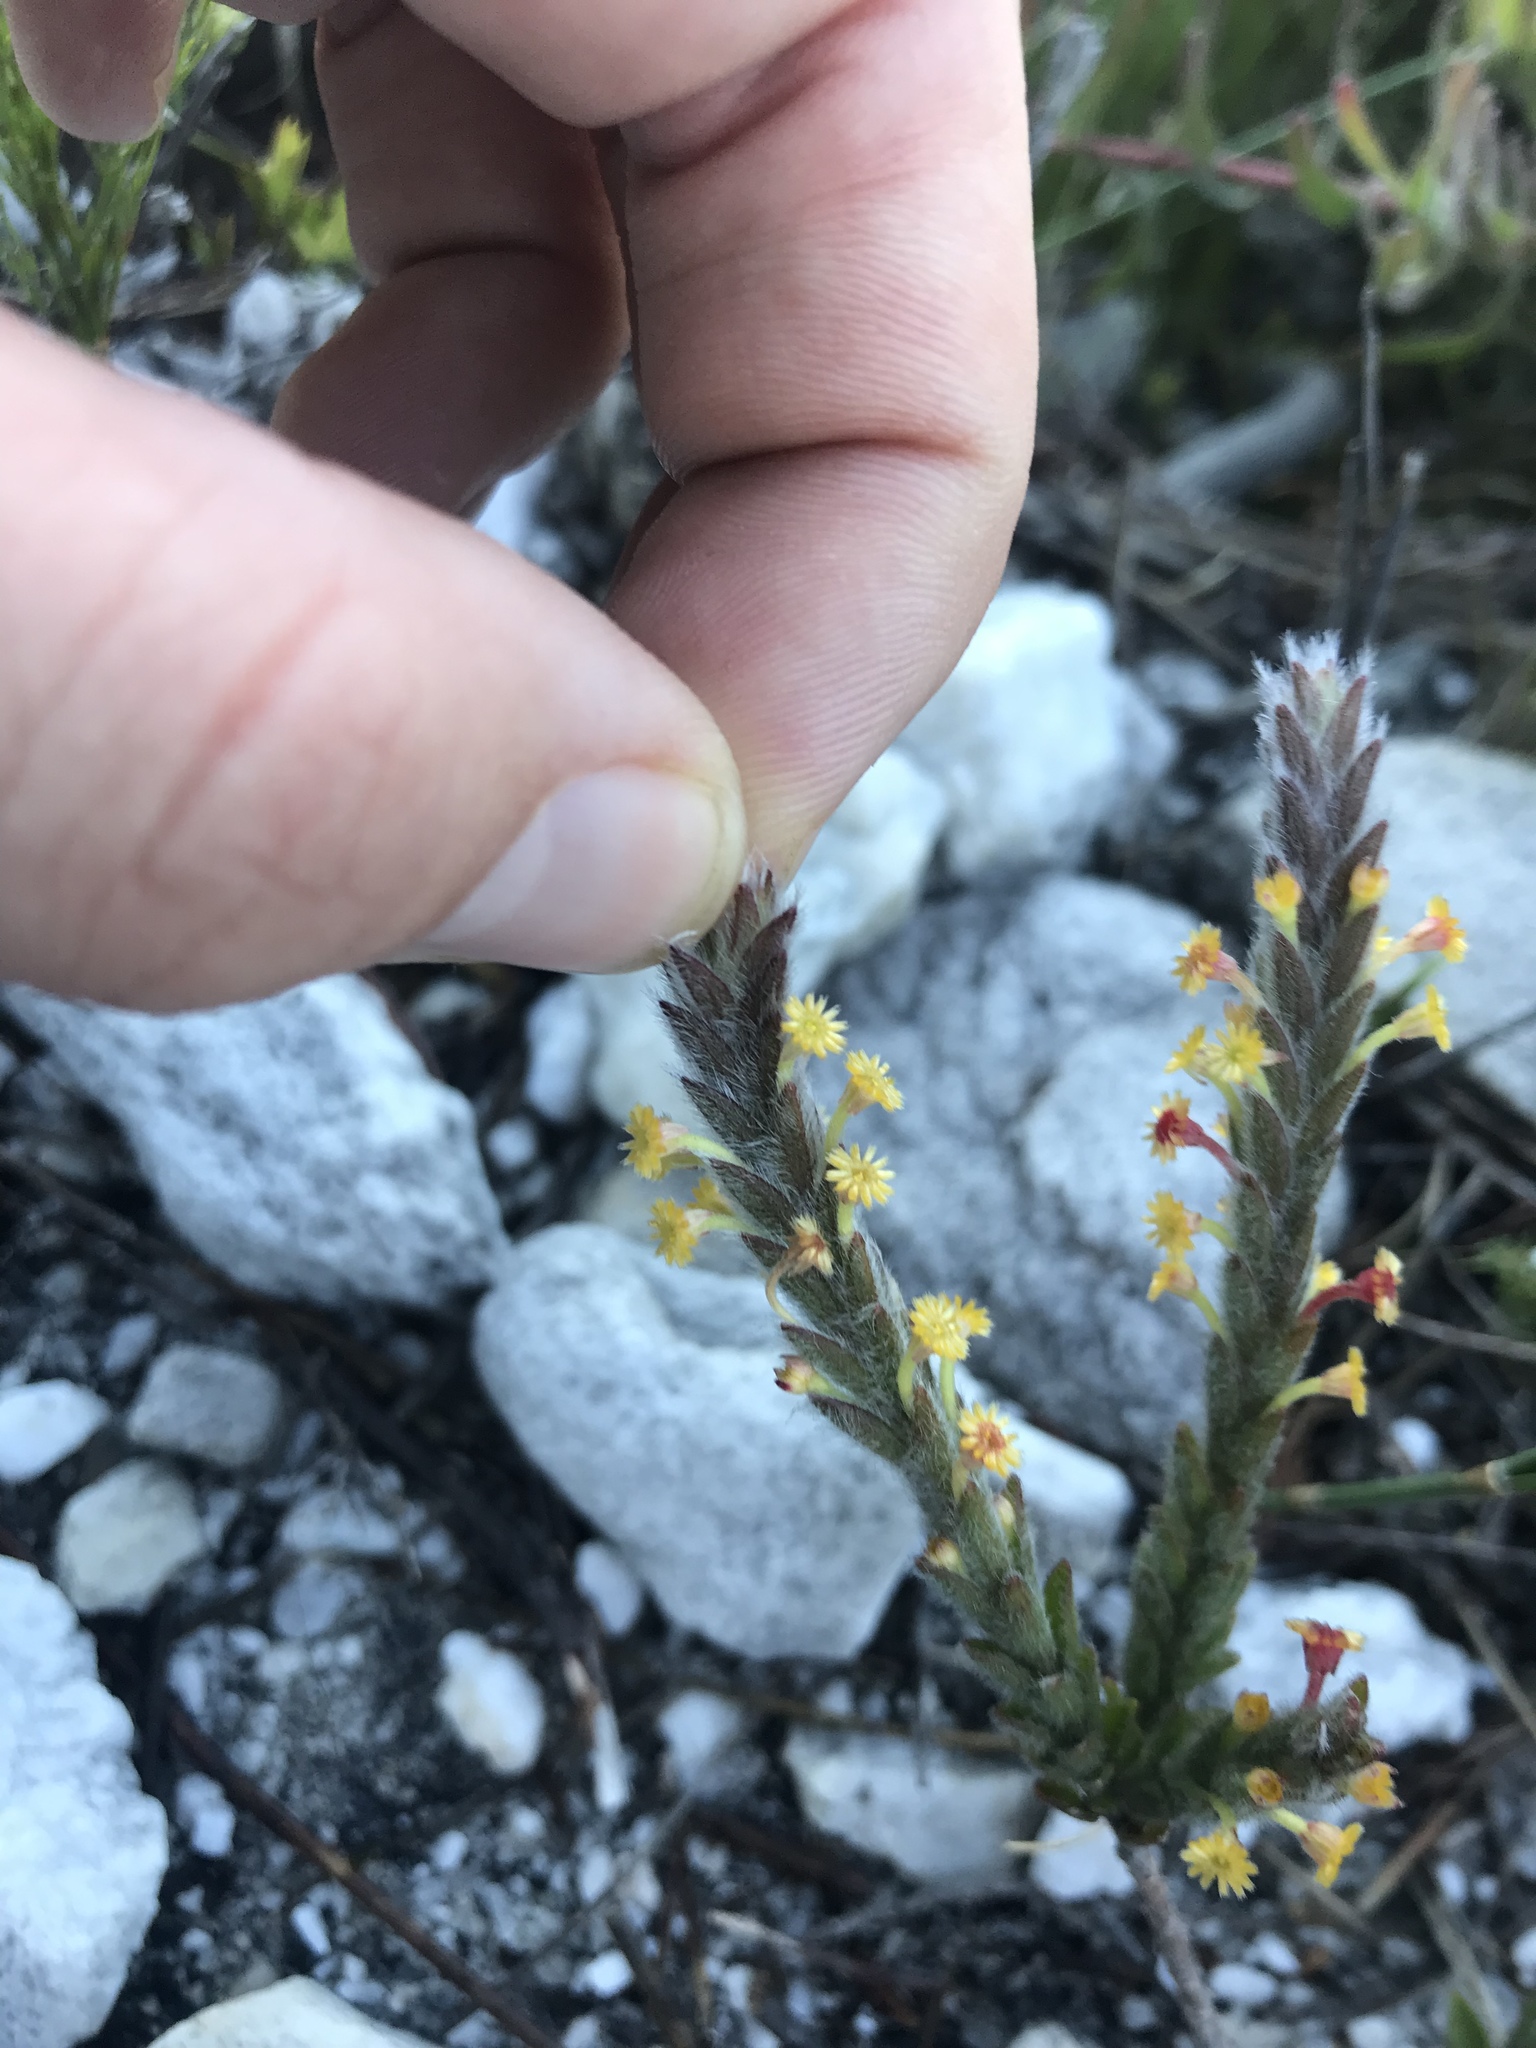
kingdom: Plantae
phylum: Tracheophyta
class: Magnoliopsida
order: Malvales
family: Thymelaeaceae
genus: Struthiola
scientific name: Struthiola tomentosa
